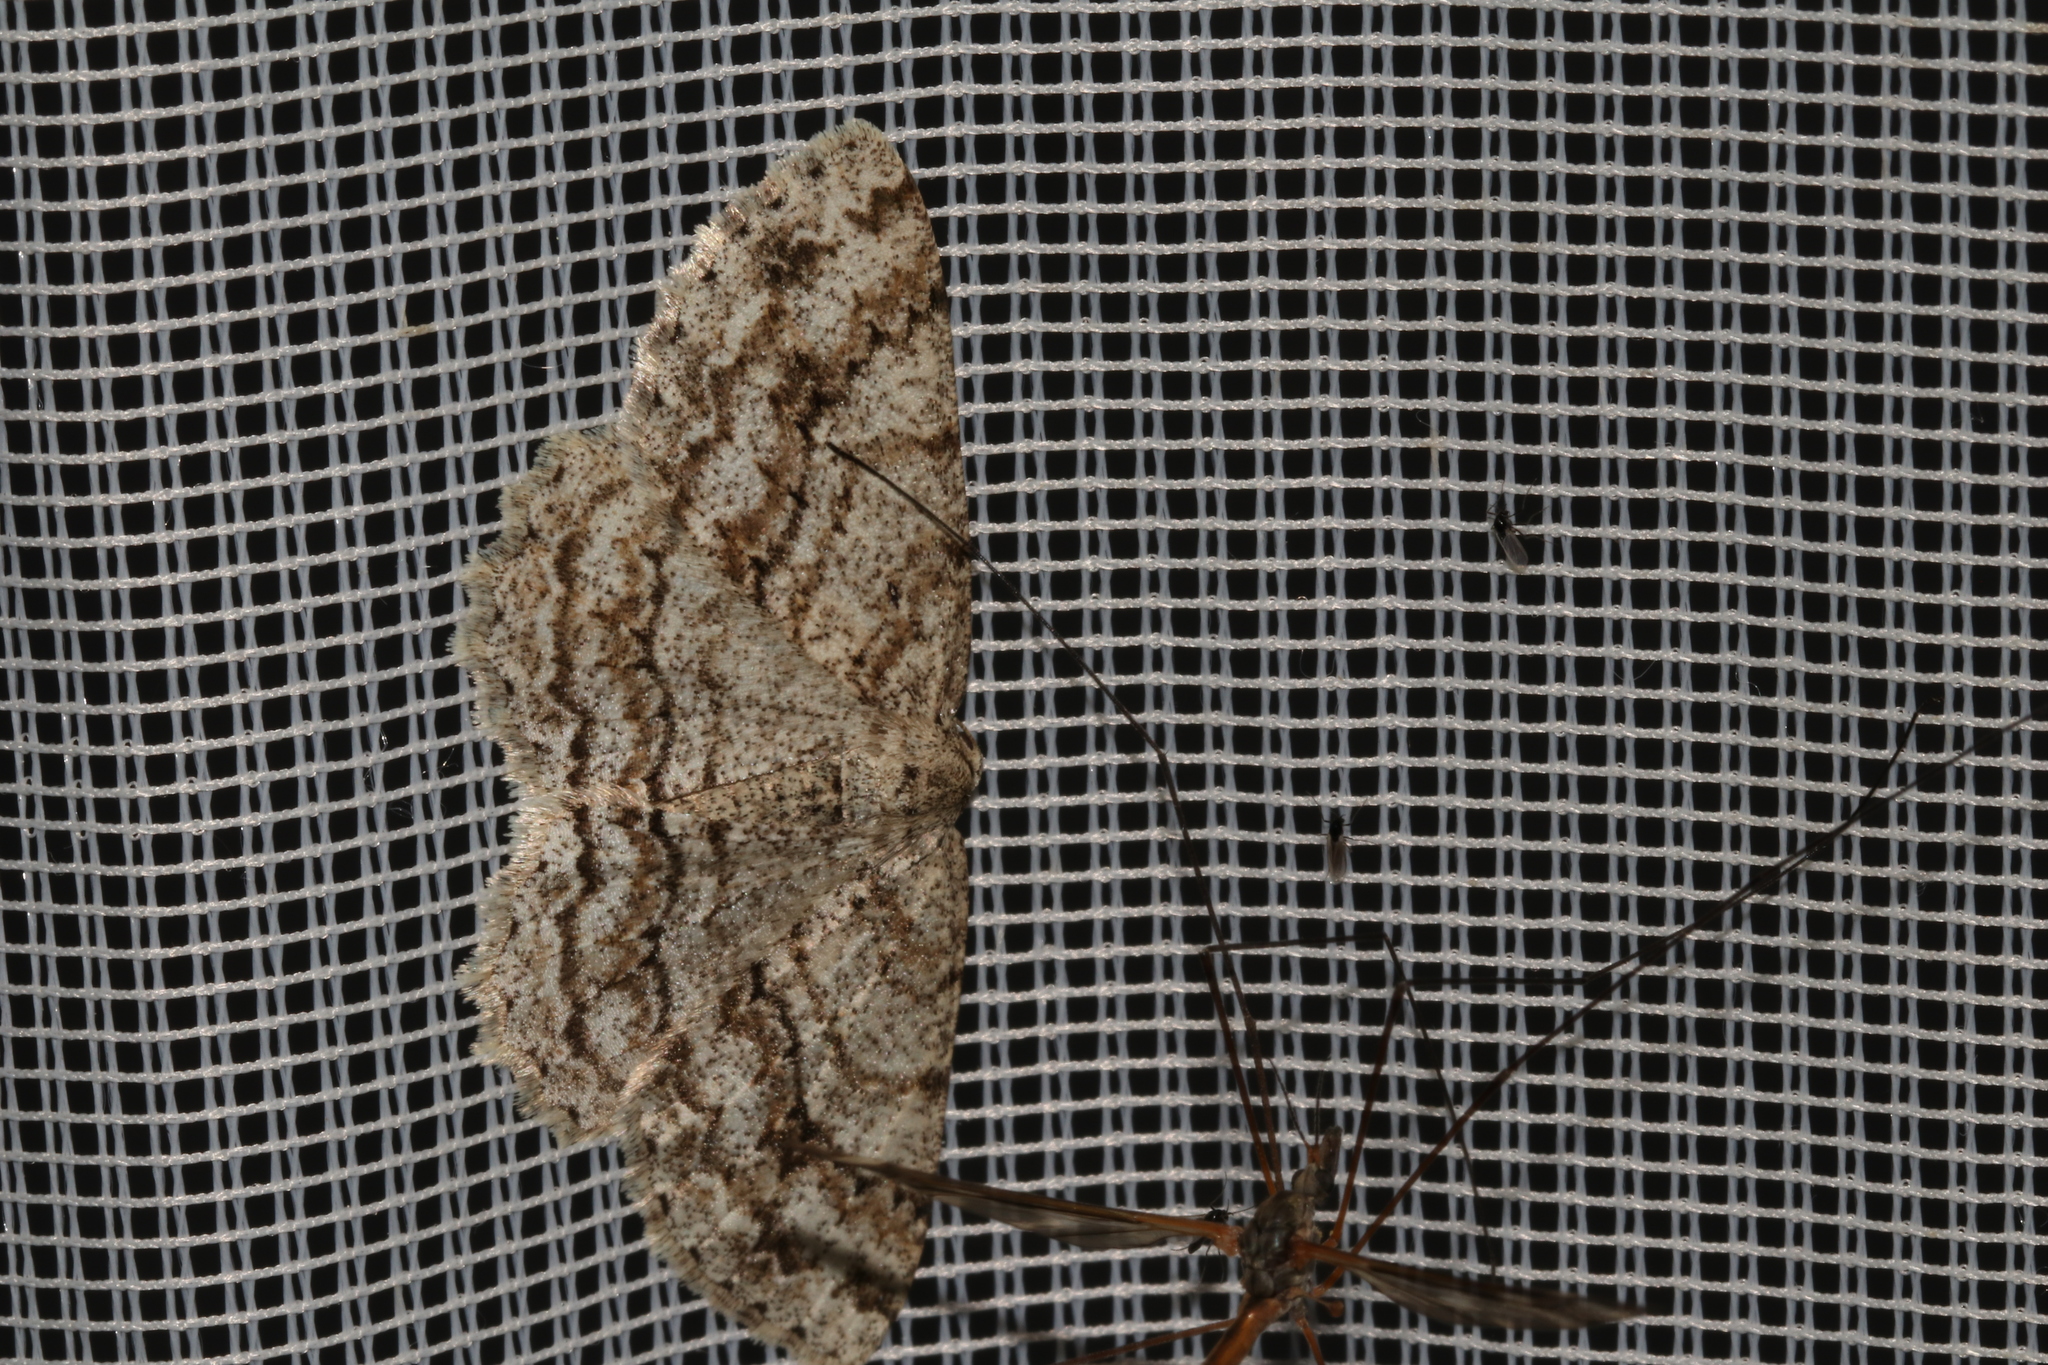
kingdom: Animalia
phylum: Arthropoda
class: Insecta
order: Lepidoptera
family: Geometridae
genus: Ectropis
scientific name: Ectropis crepuscularia
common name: Engrailed
